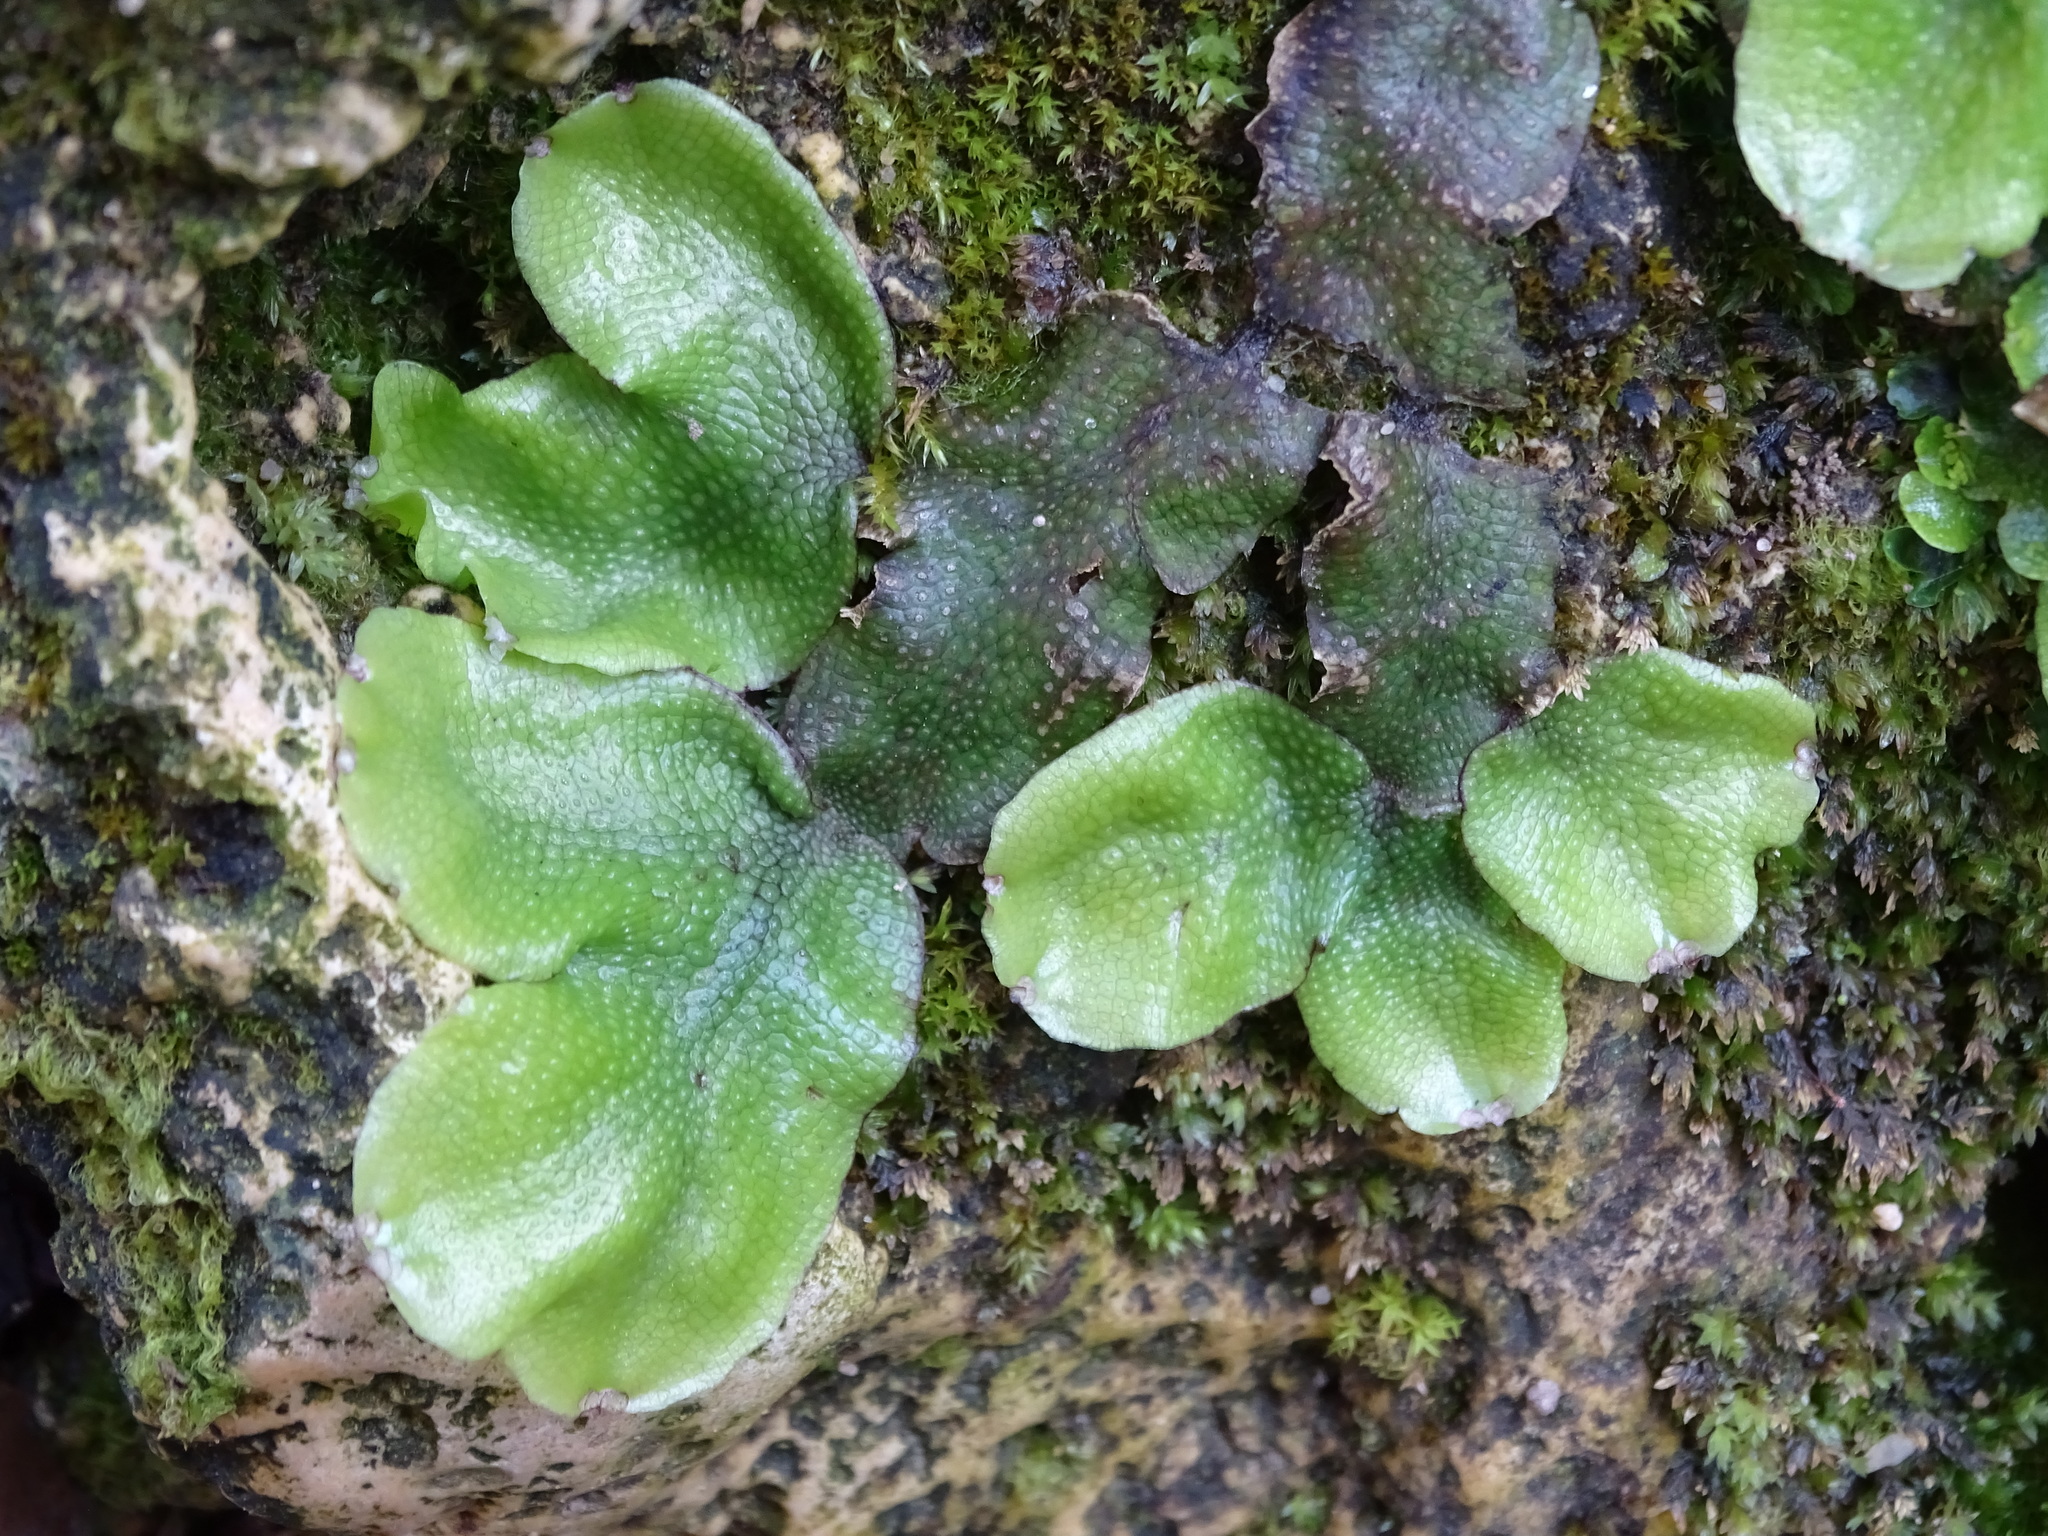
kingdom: Plantae
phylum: Marchantiophyta
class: Marchantiopsida
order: Marchantiales
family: Conocephalaceae
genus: Conocephalum
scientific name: Conocephalum conicum
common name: Great scented liverwort
